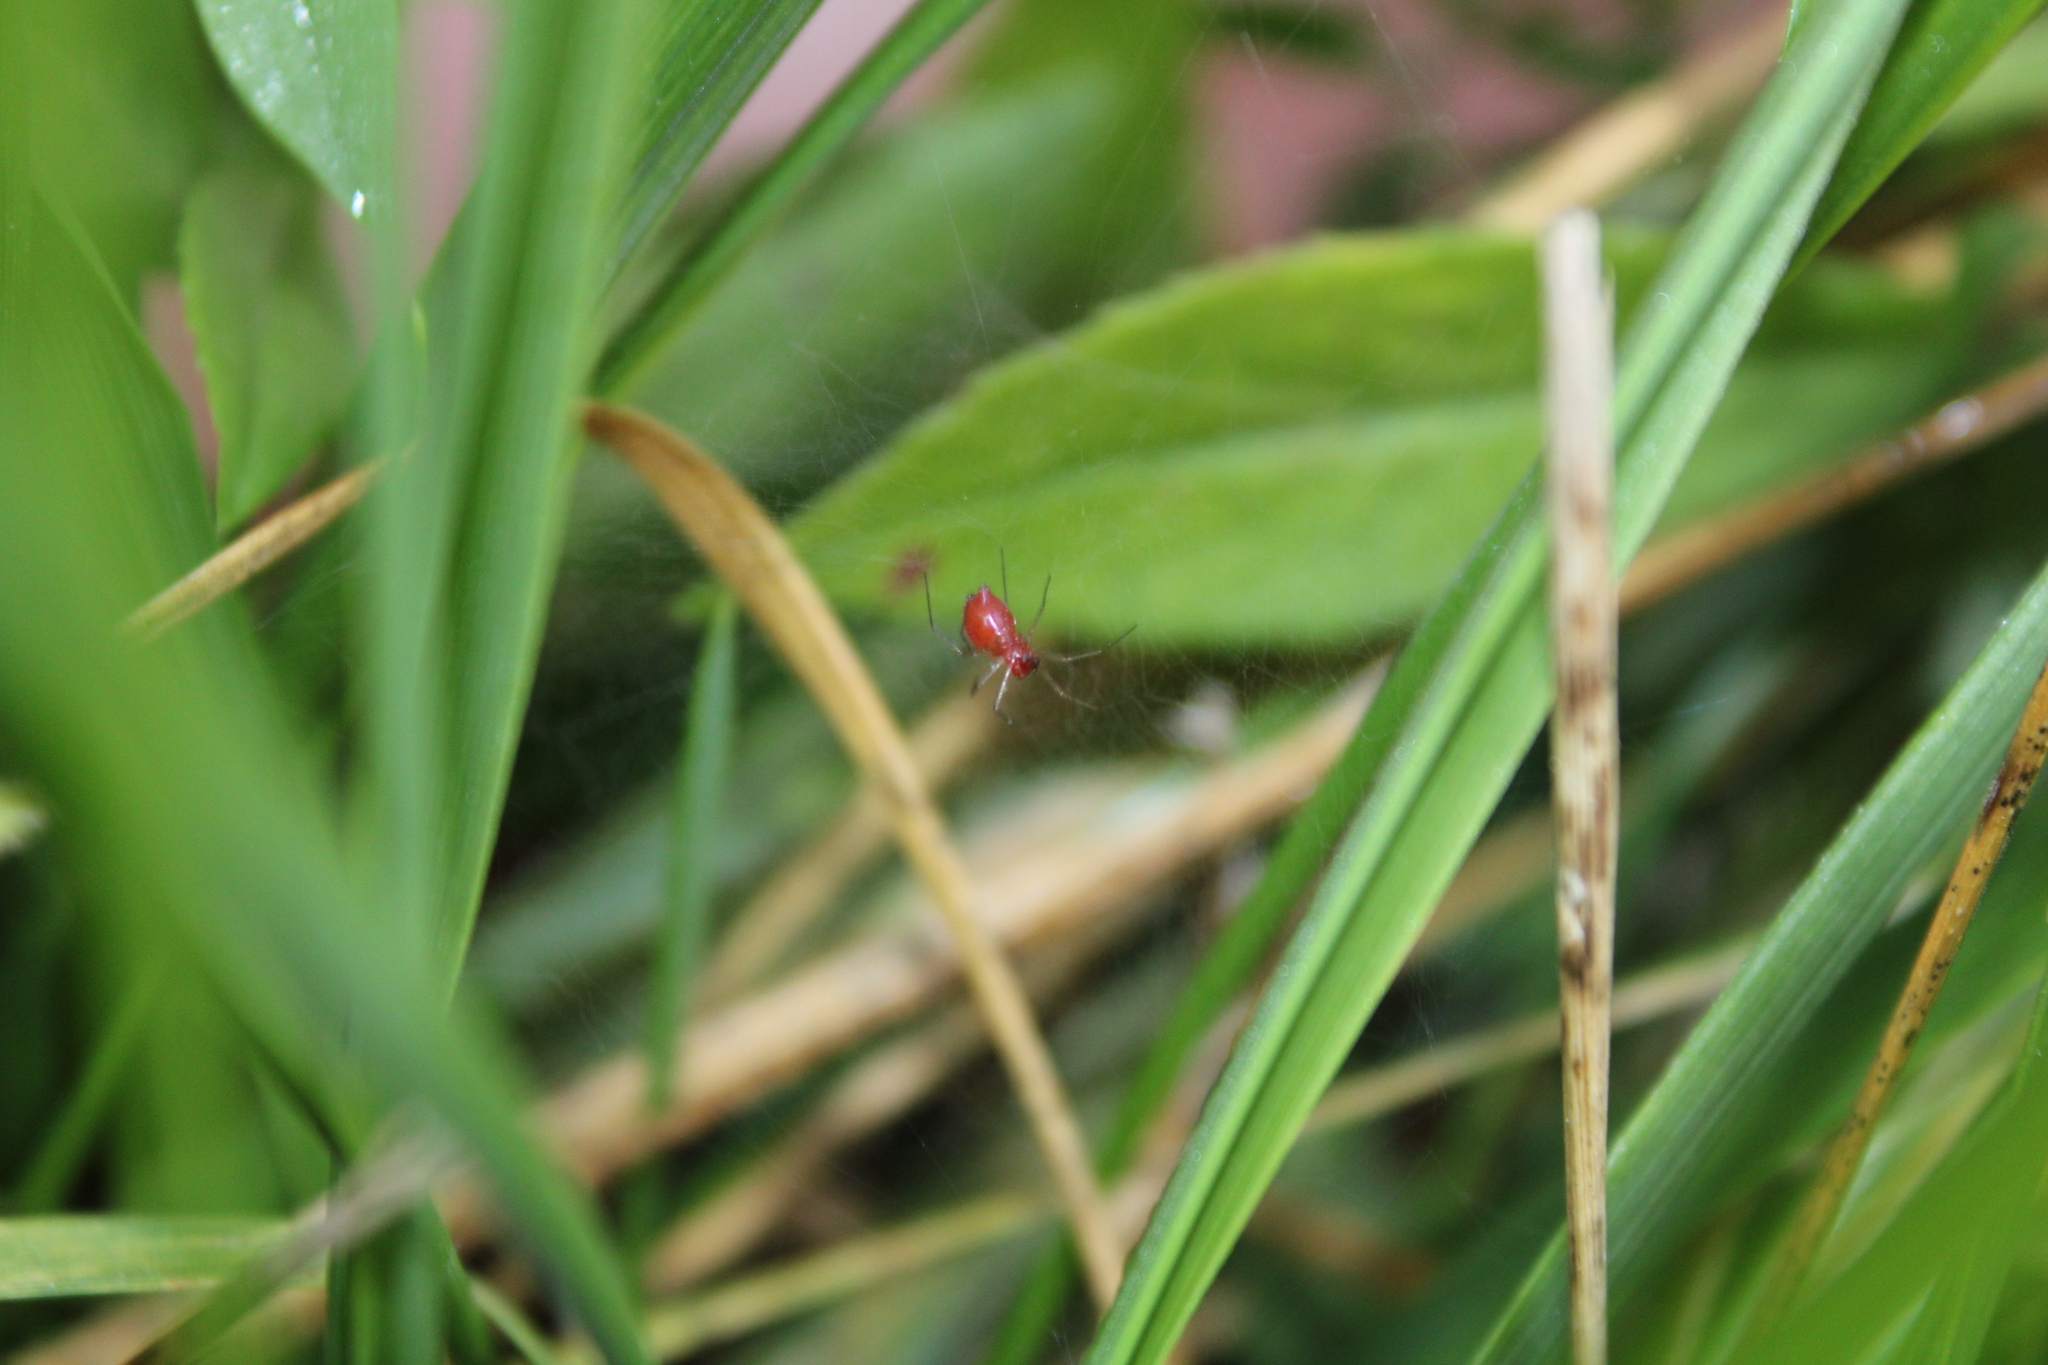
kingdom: Animalia
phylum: Arthropoda
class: Arachnida
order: Araneae
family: Linyphiidae
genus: Florinda
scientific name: Florinda coccinea
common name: Black-tailed red sheetweaver
